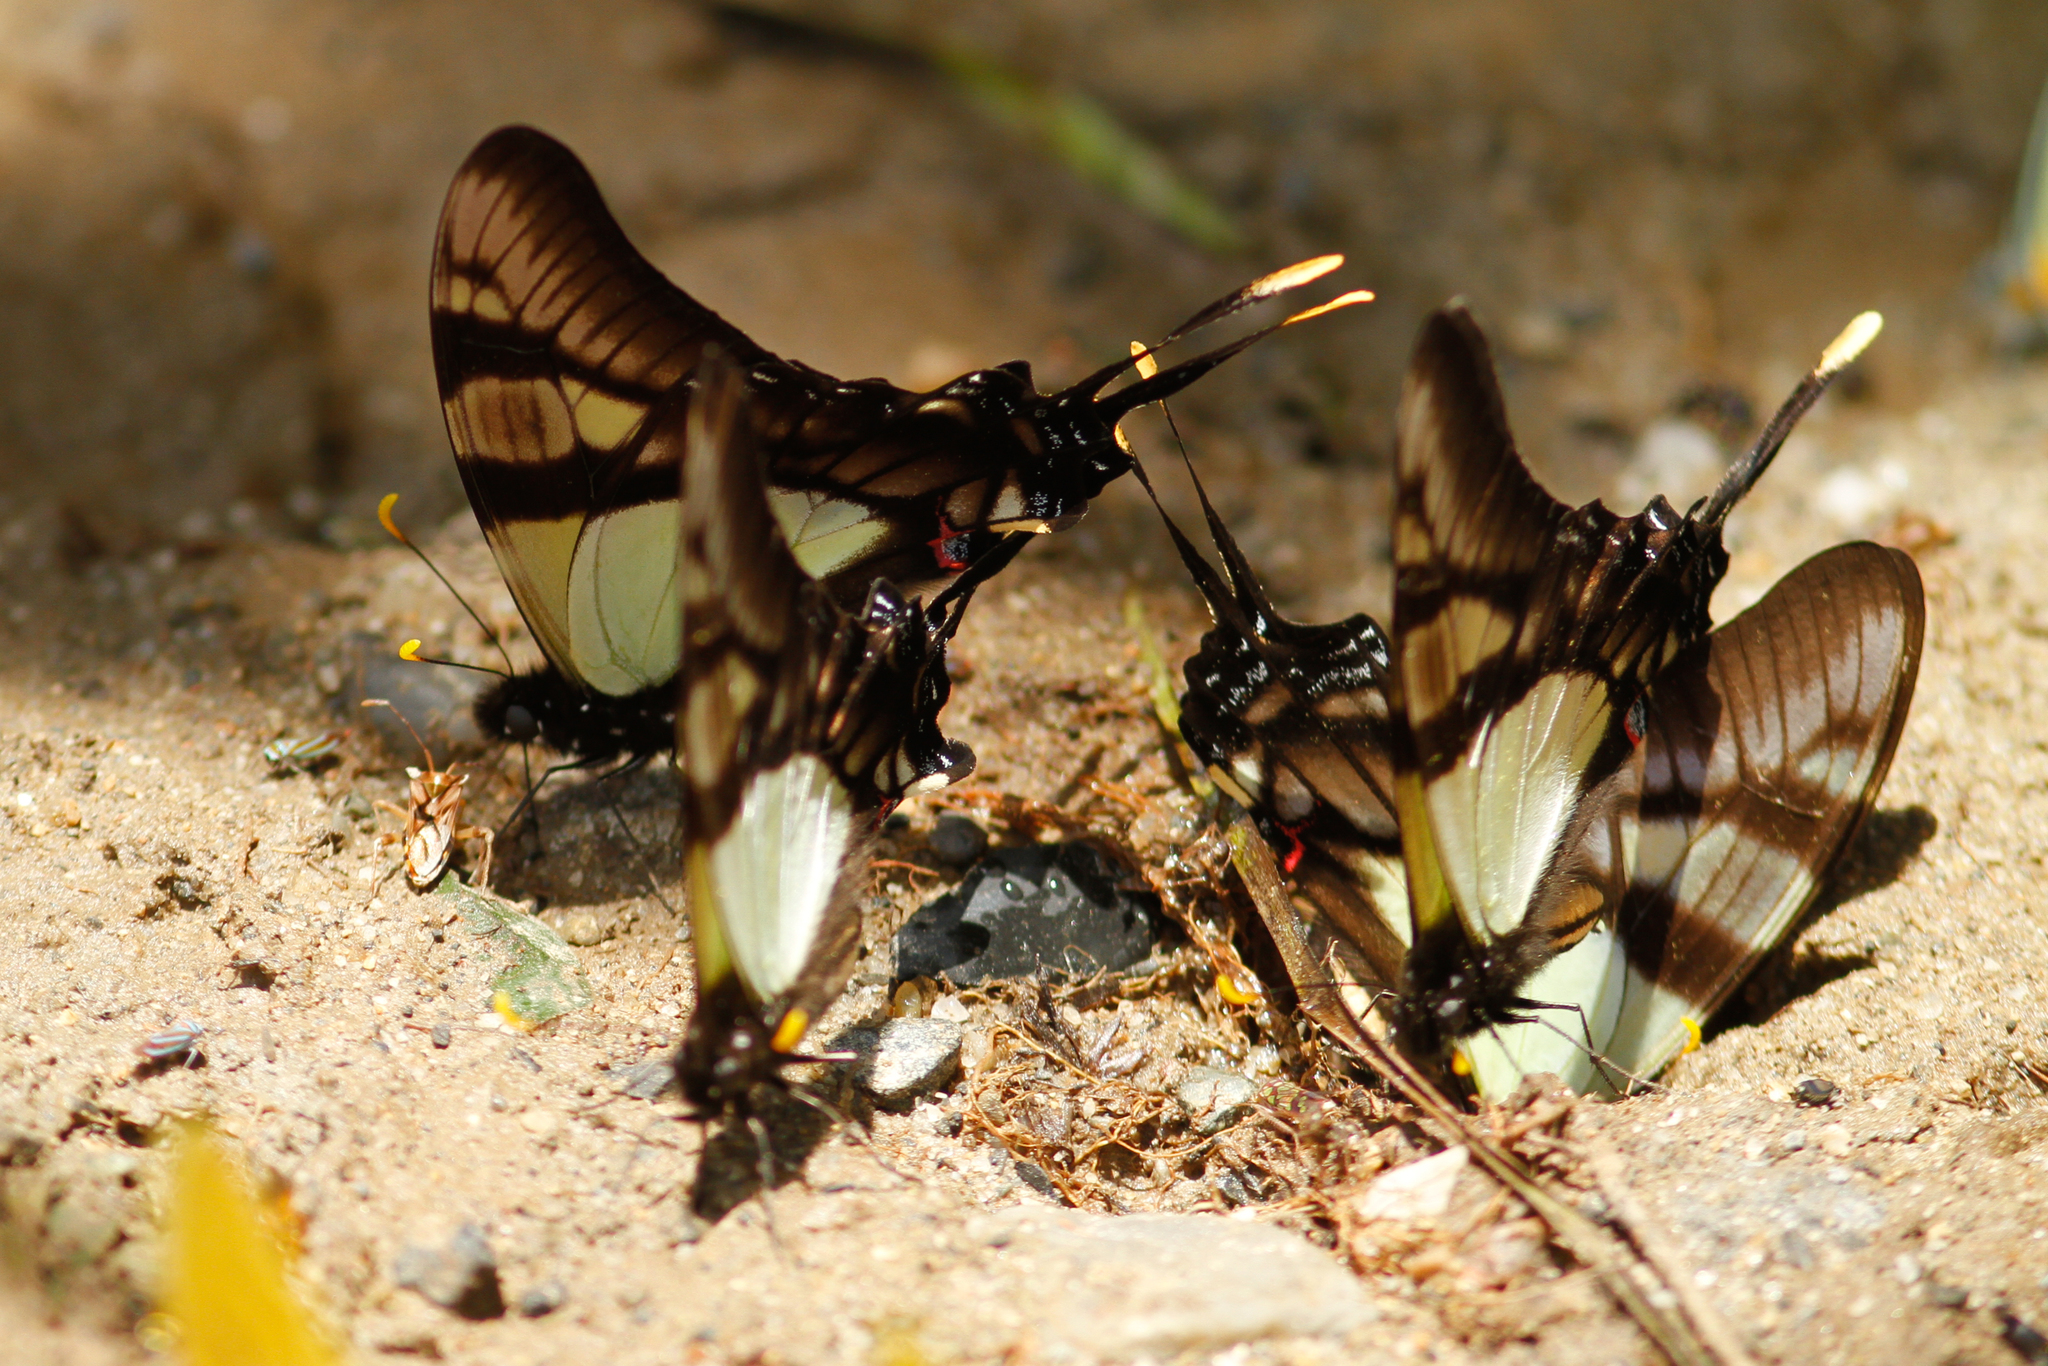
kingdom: Animalia
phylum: Arthropoda
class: Insecta
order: Lepidoptera
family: Papilionidae
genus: Eurytides
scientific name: Eurytides serville
